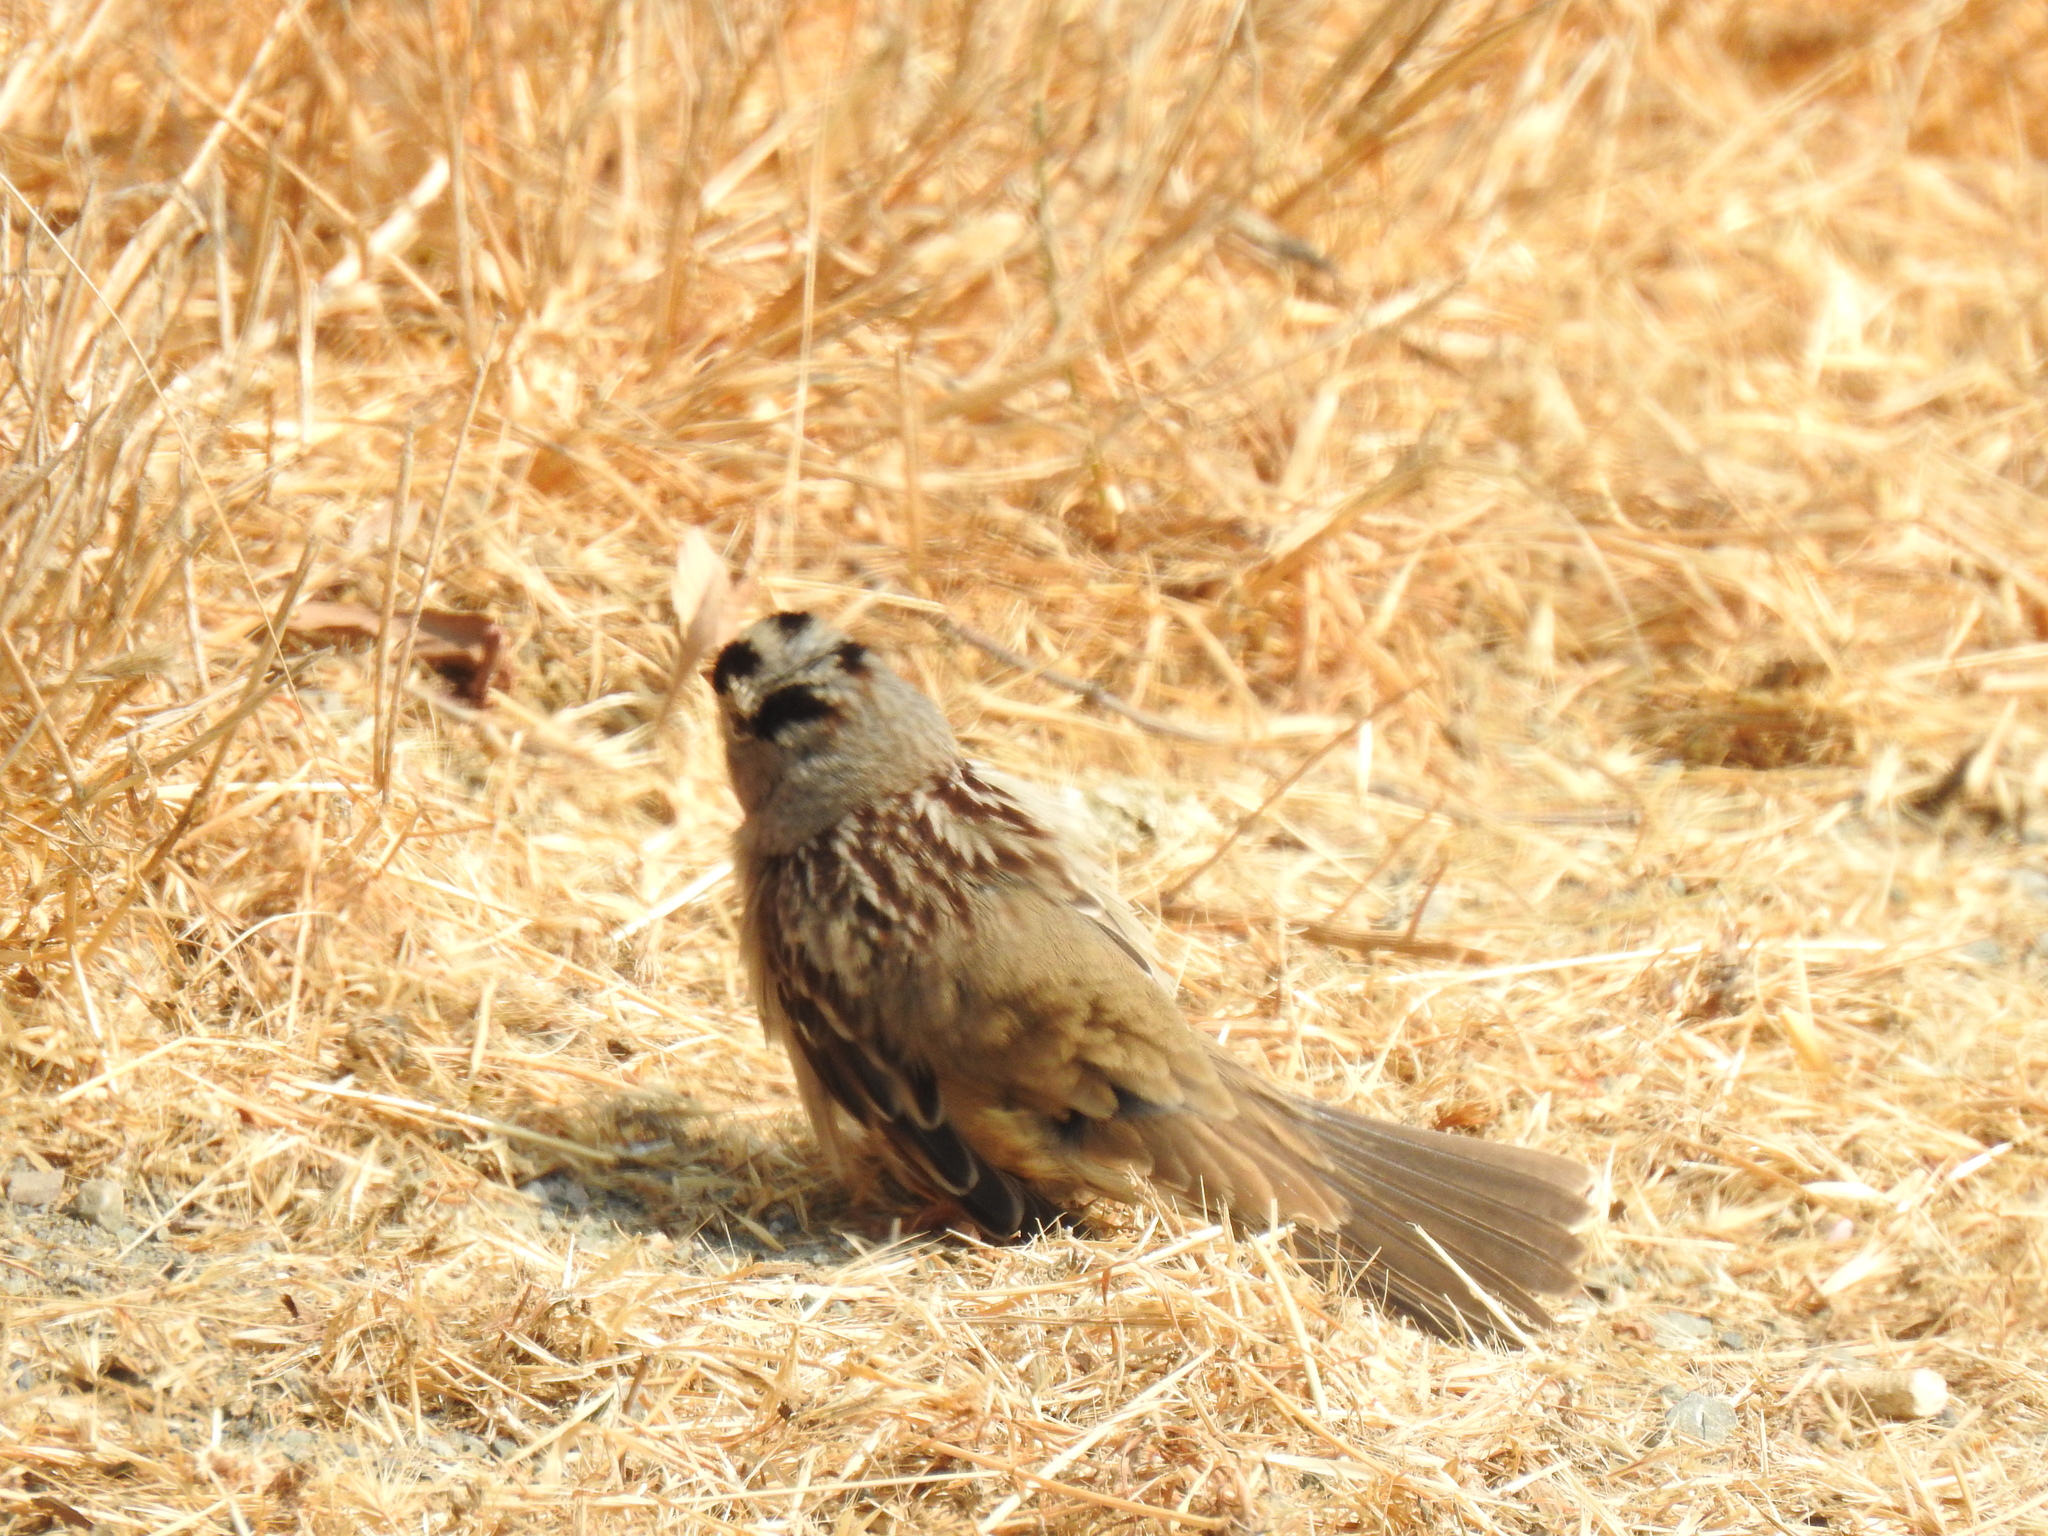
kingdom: Animalia
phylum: Chordata
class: Aves
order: Passeriformes
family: Passerellidae
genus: Zonotrichia
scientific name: Zonotrichia leucophrys
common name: White-crowned sparrow
